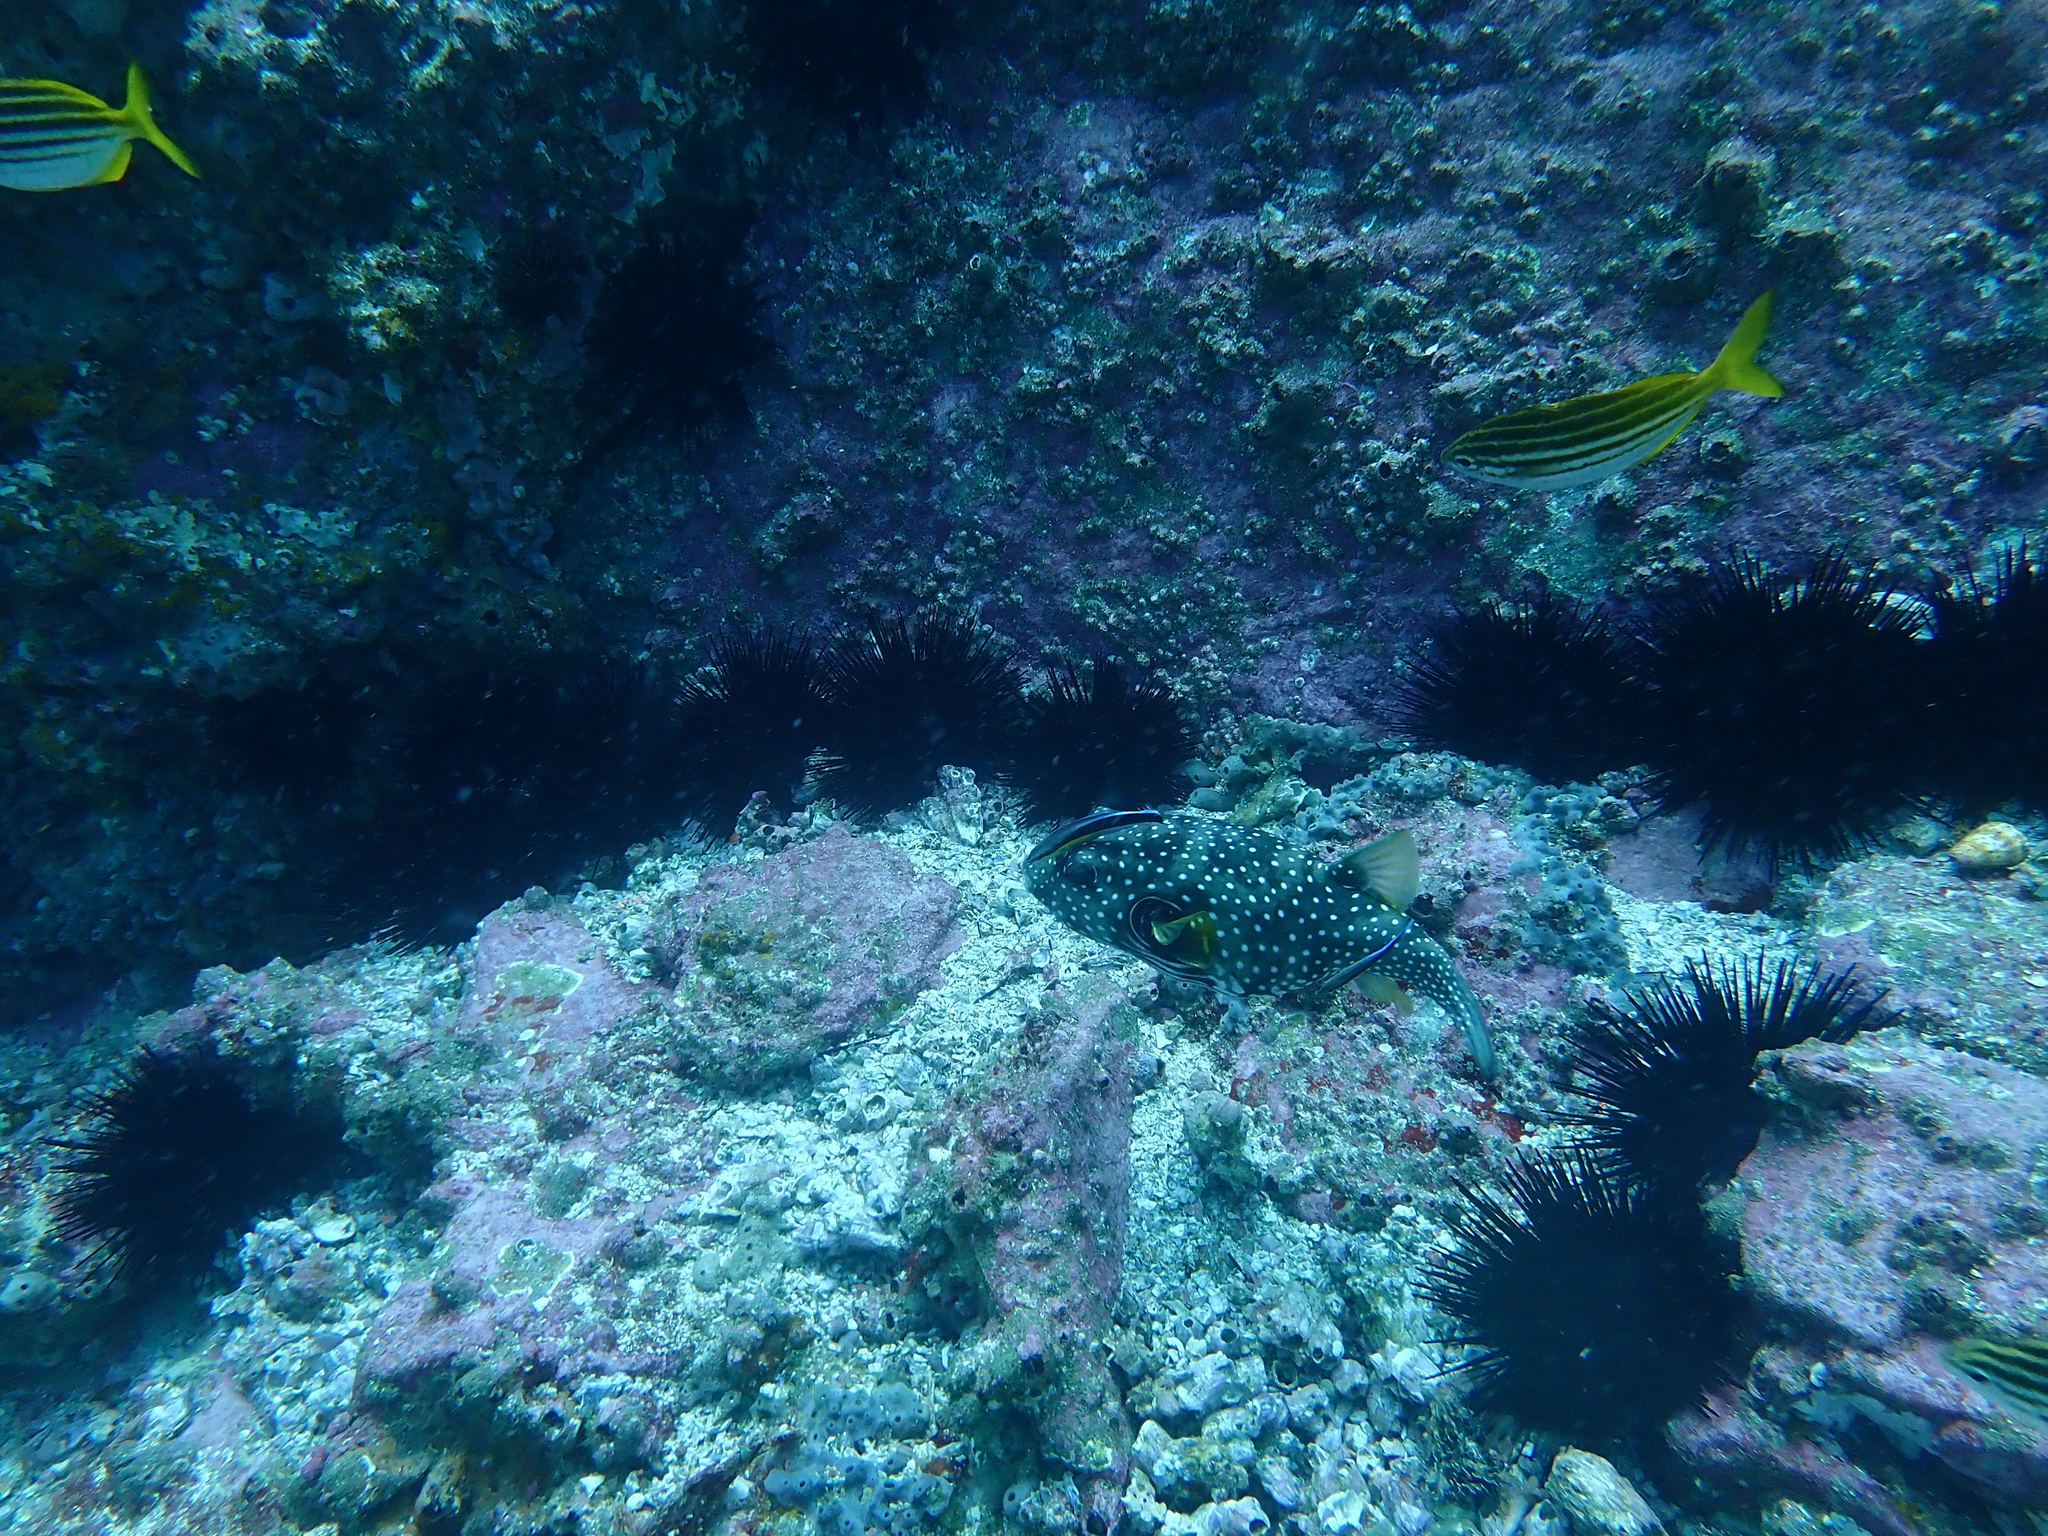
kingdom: Animalia
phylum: Chordata
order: Perciformes
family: Labridae
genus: Labroides
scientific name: Labroides dimidiatus
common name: Blue diesel wrasse
